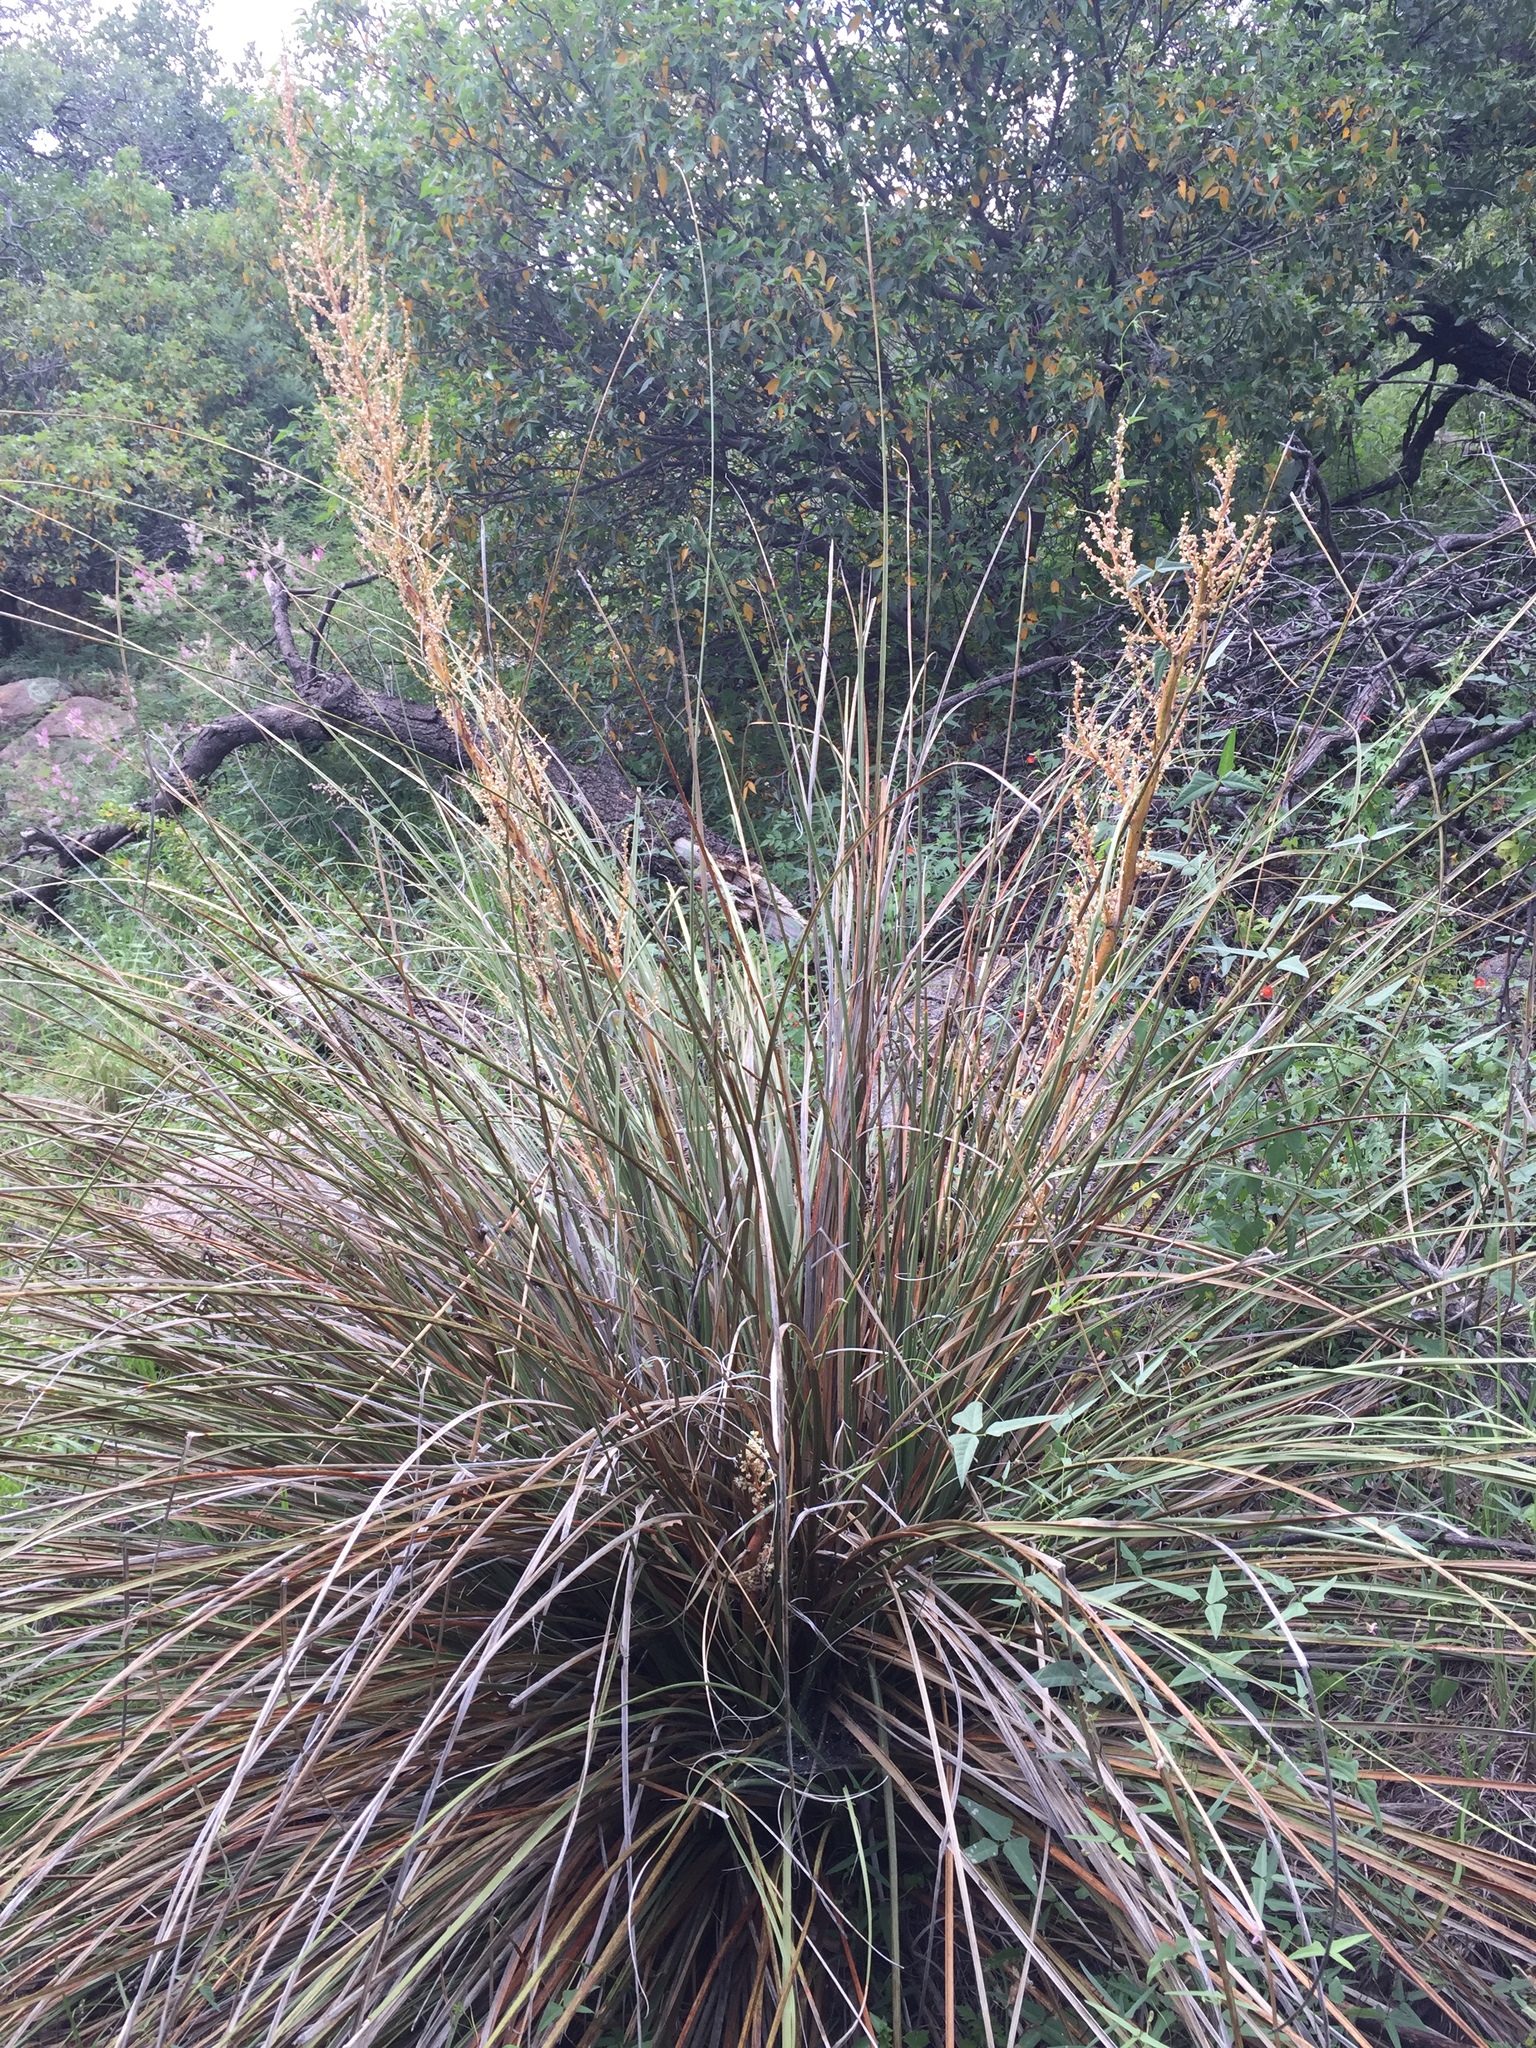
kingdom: Plantae
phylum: Tracheophyta
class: Liliopsida
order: Asparagales
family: Asparagaceae
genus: Nolina
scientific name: Nolina microcarpa
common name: Bear-grass
